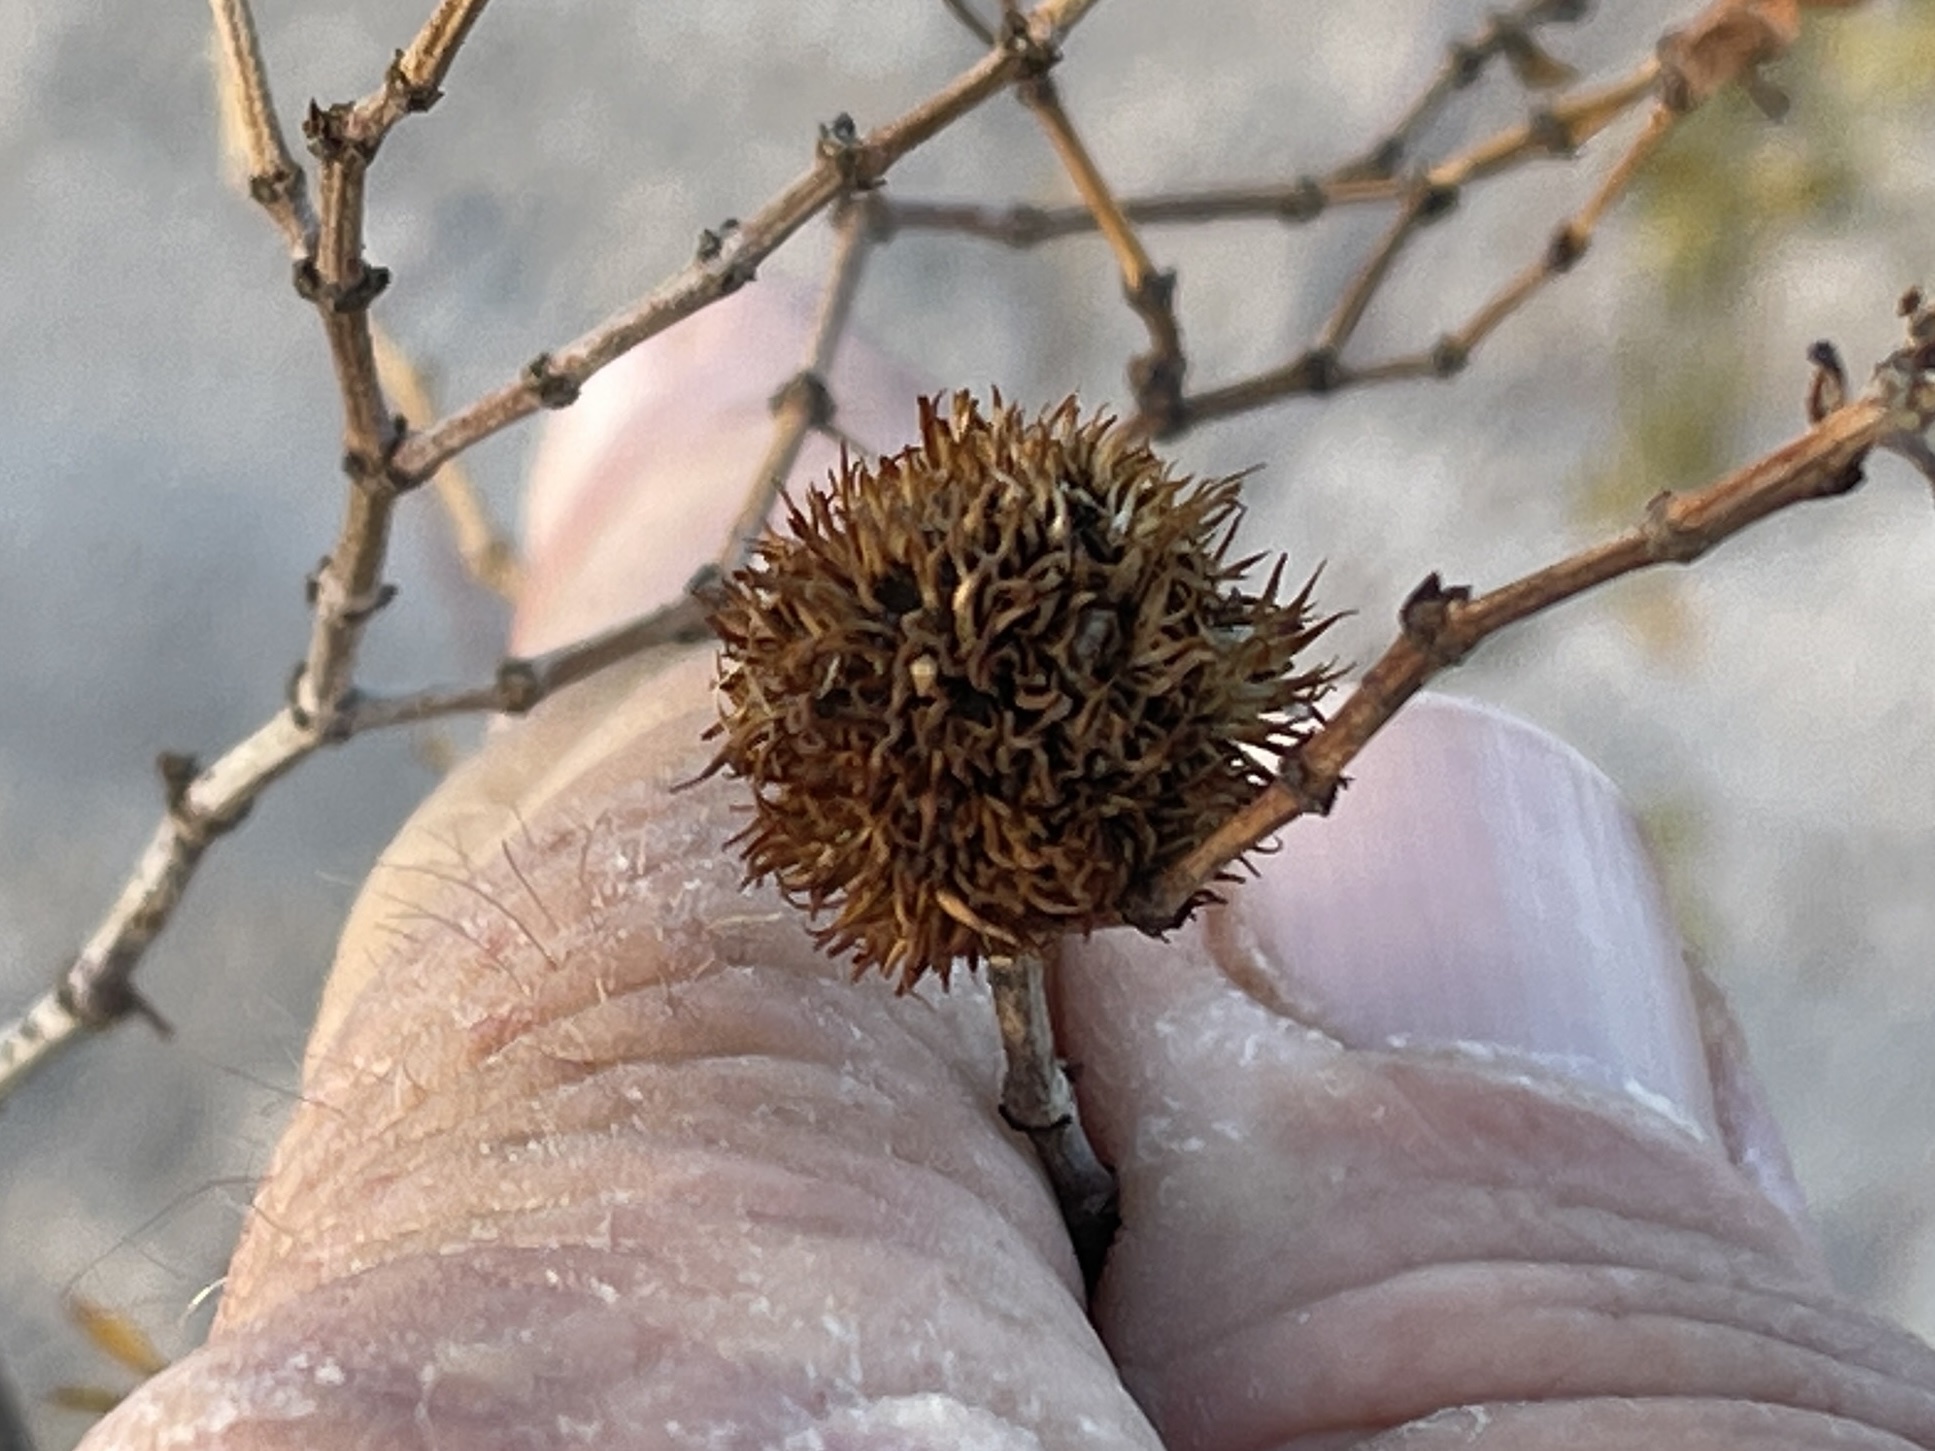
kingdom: Animalia
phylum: Arthropoda
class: Insecta
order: Diptera
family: Cecidomyiidae
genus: Asphondylia
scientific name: Asphondylia auripila
